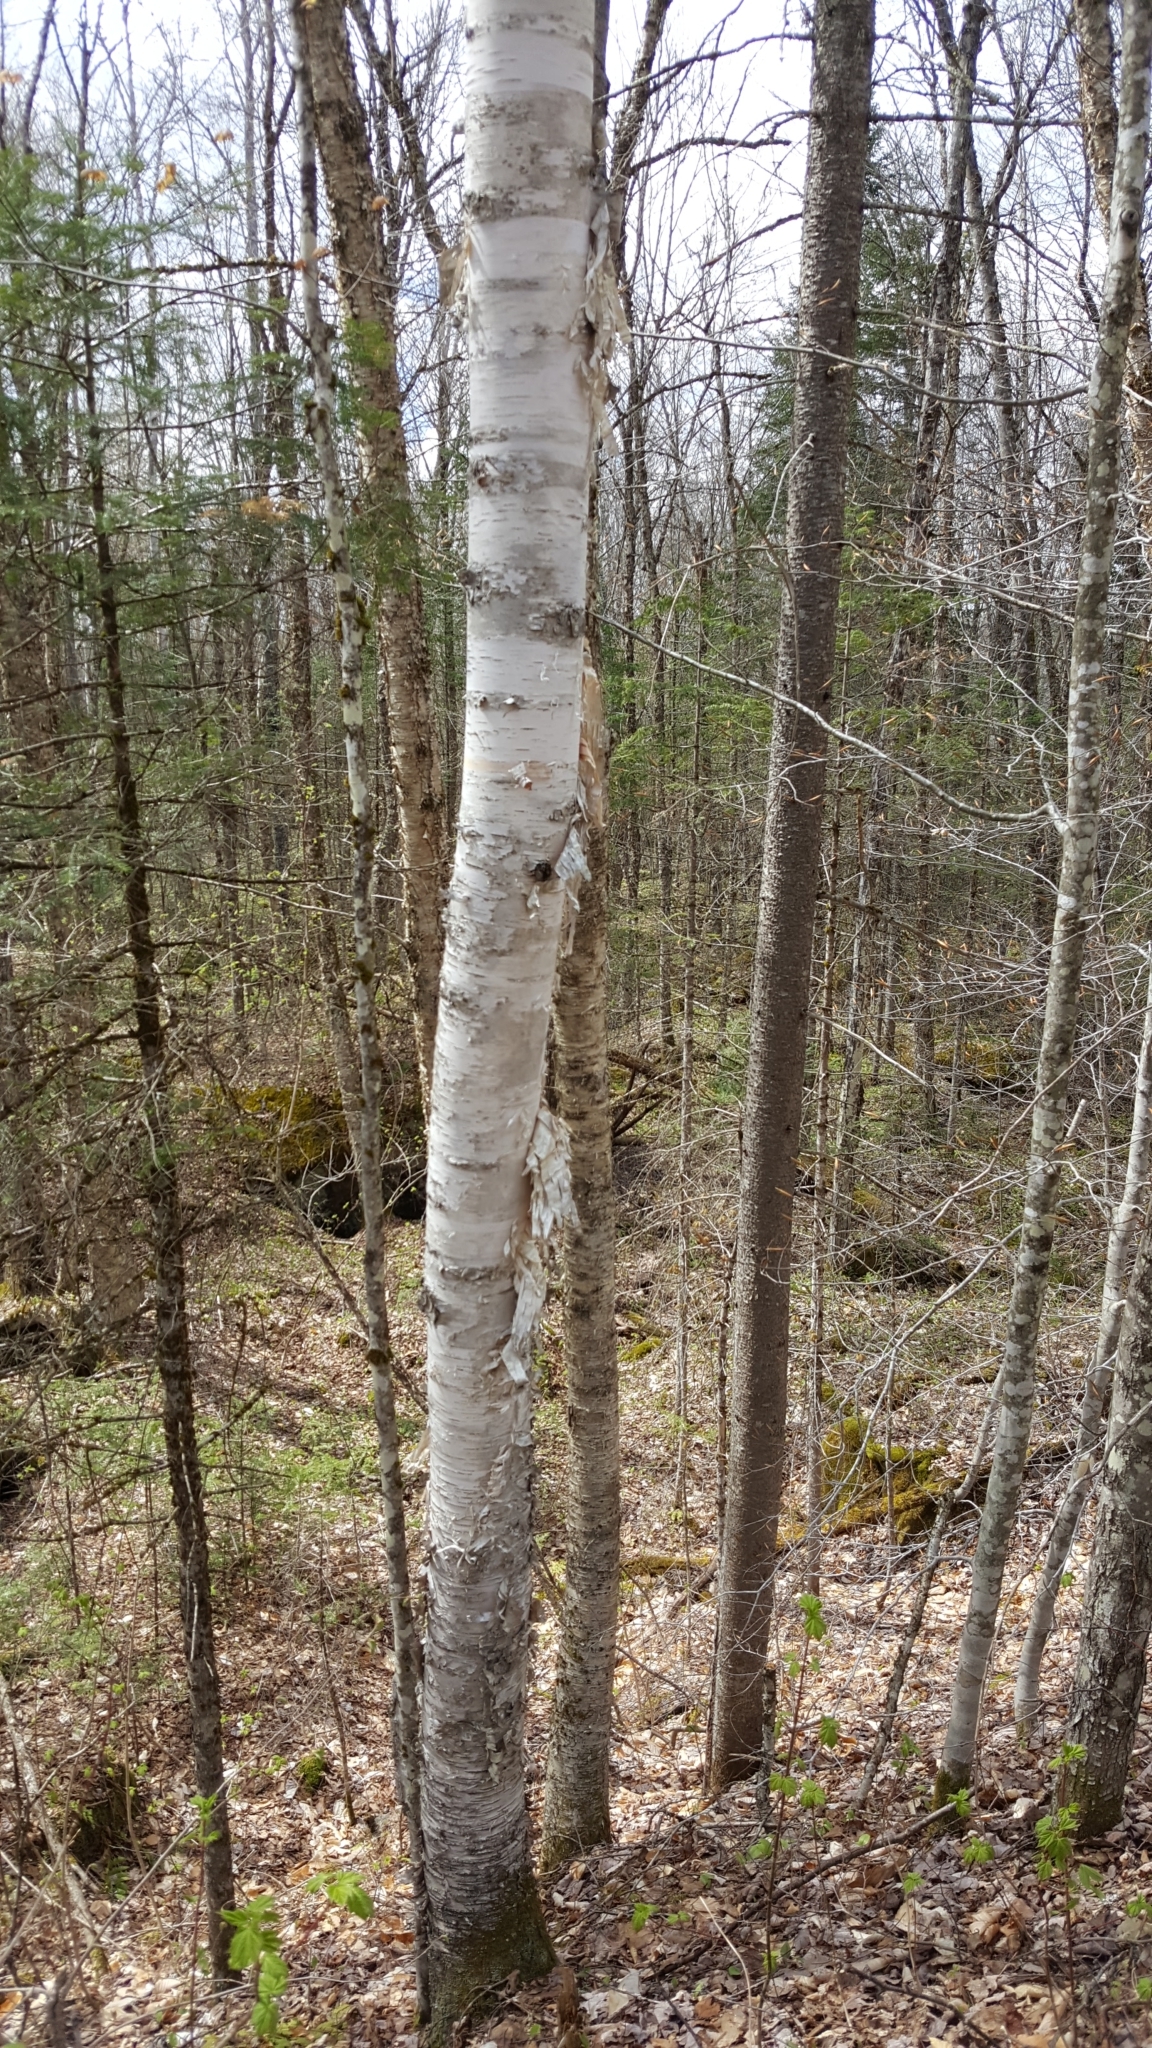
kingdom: Plantae
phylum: Tracheophyta
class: Magnoliopsida
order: Fagales
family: Betulaceae
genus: Betula
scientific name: Betula papyrifera
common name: Paper birch
